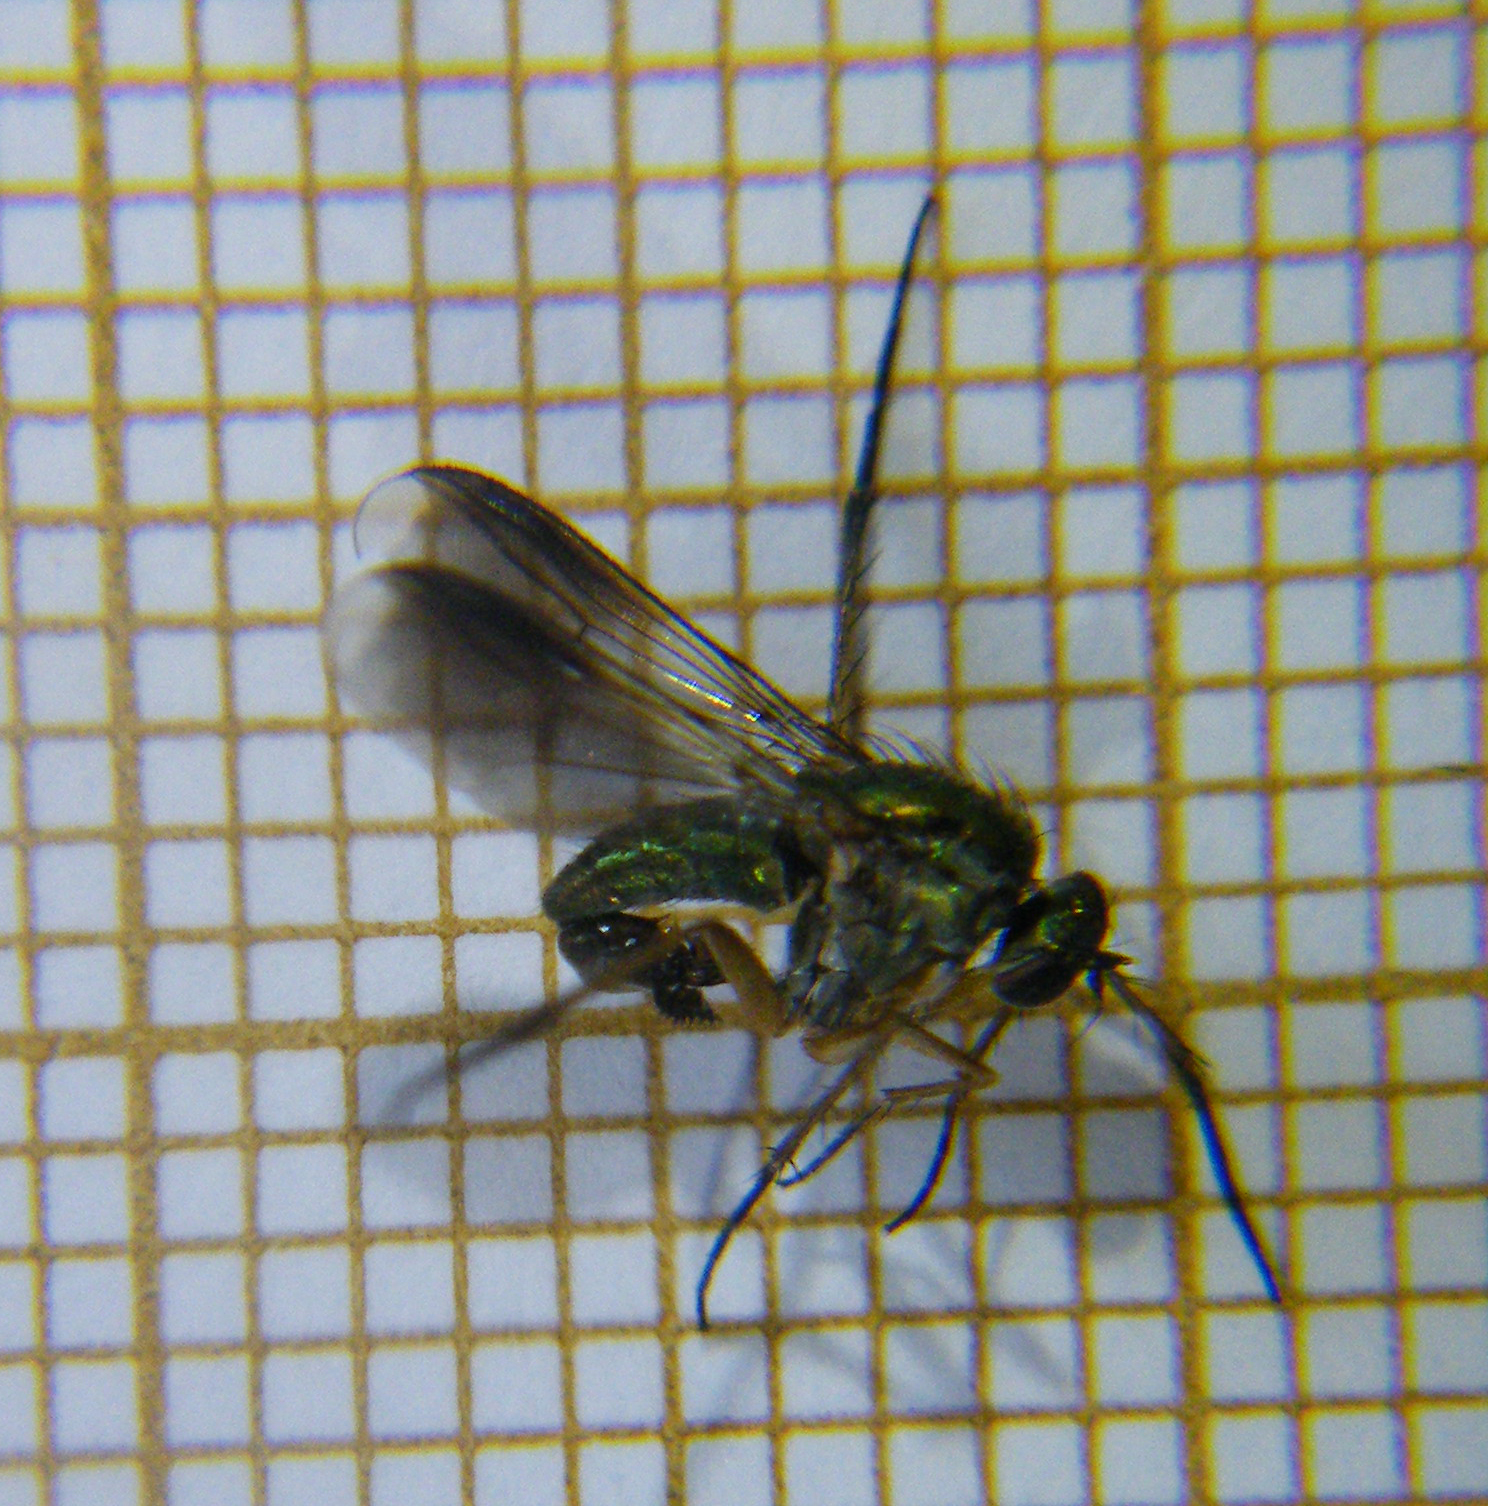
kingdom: Animalia
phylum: Arthropoda
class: Insecta
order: Diptera
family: Dolichopodidae
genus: Poecilobothrus
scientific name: Poecilobothrus nobilitatus
